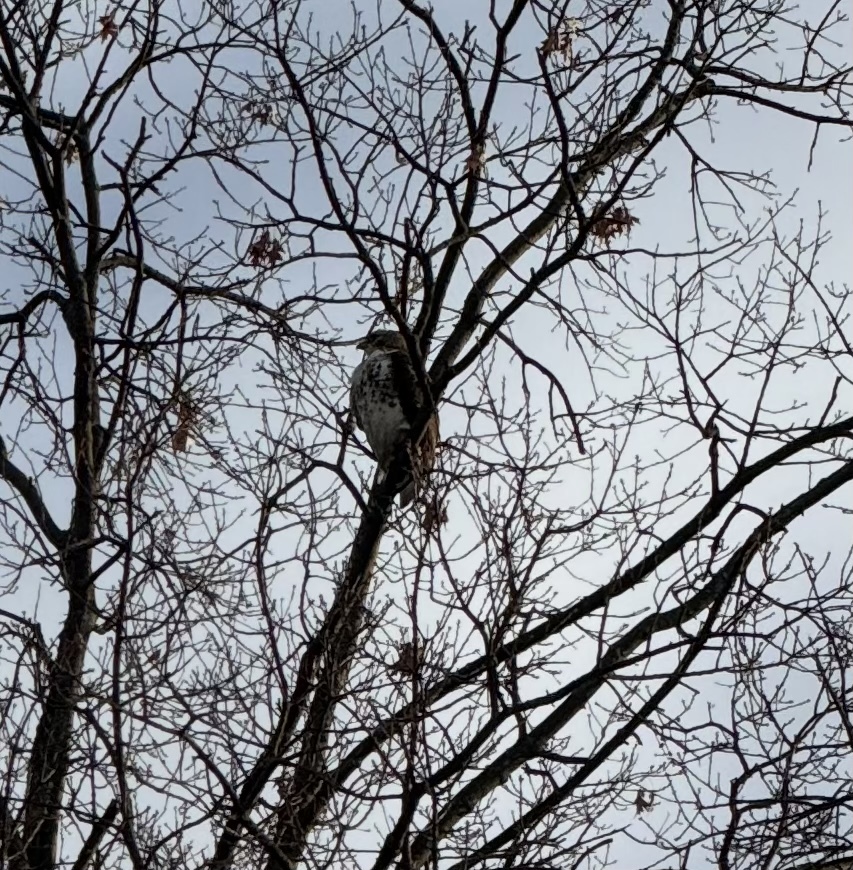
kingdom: Animalia
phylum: Chordata
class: Aves
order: Accipitriformes
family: Accipitridae
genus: Buteo
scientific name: Buteo jamaicensis
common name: Red-tailed hawk
